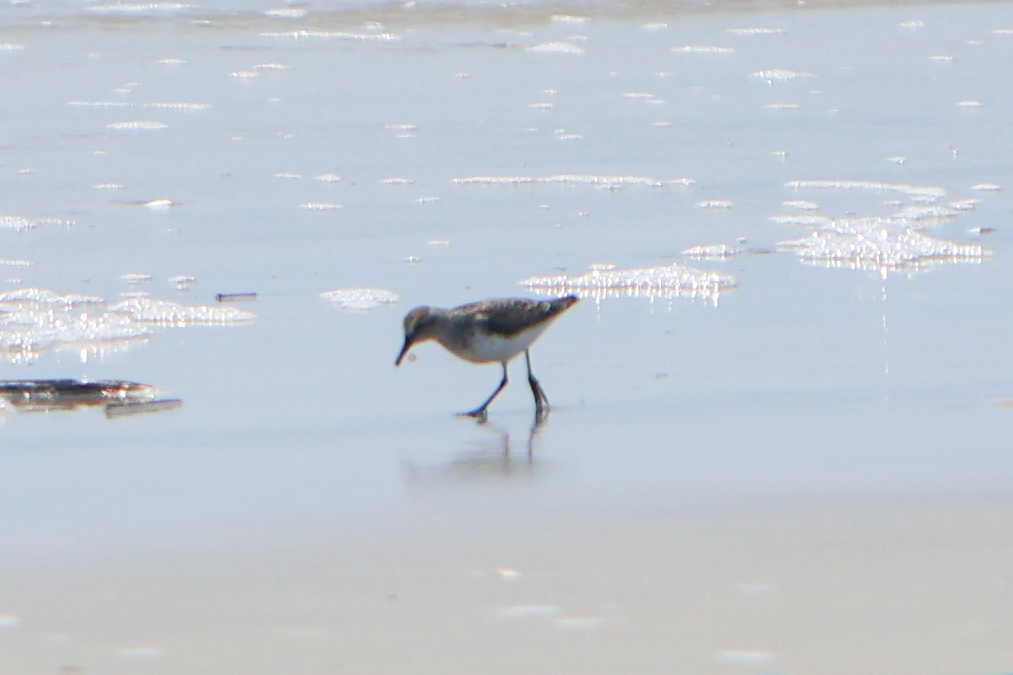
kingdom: Animalia
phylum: Chordata
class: Aves
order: Charadriiformes
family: Scolopacidae
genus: Calidris
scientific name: Calidris pusilla
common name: Semipalmated sandpiper
